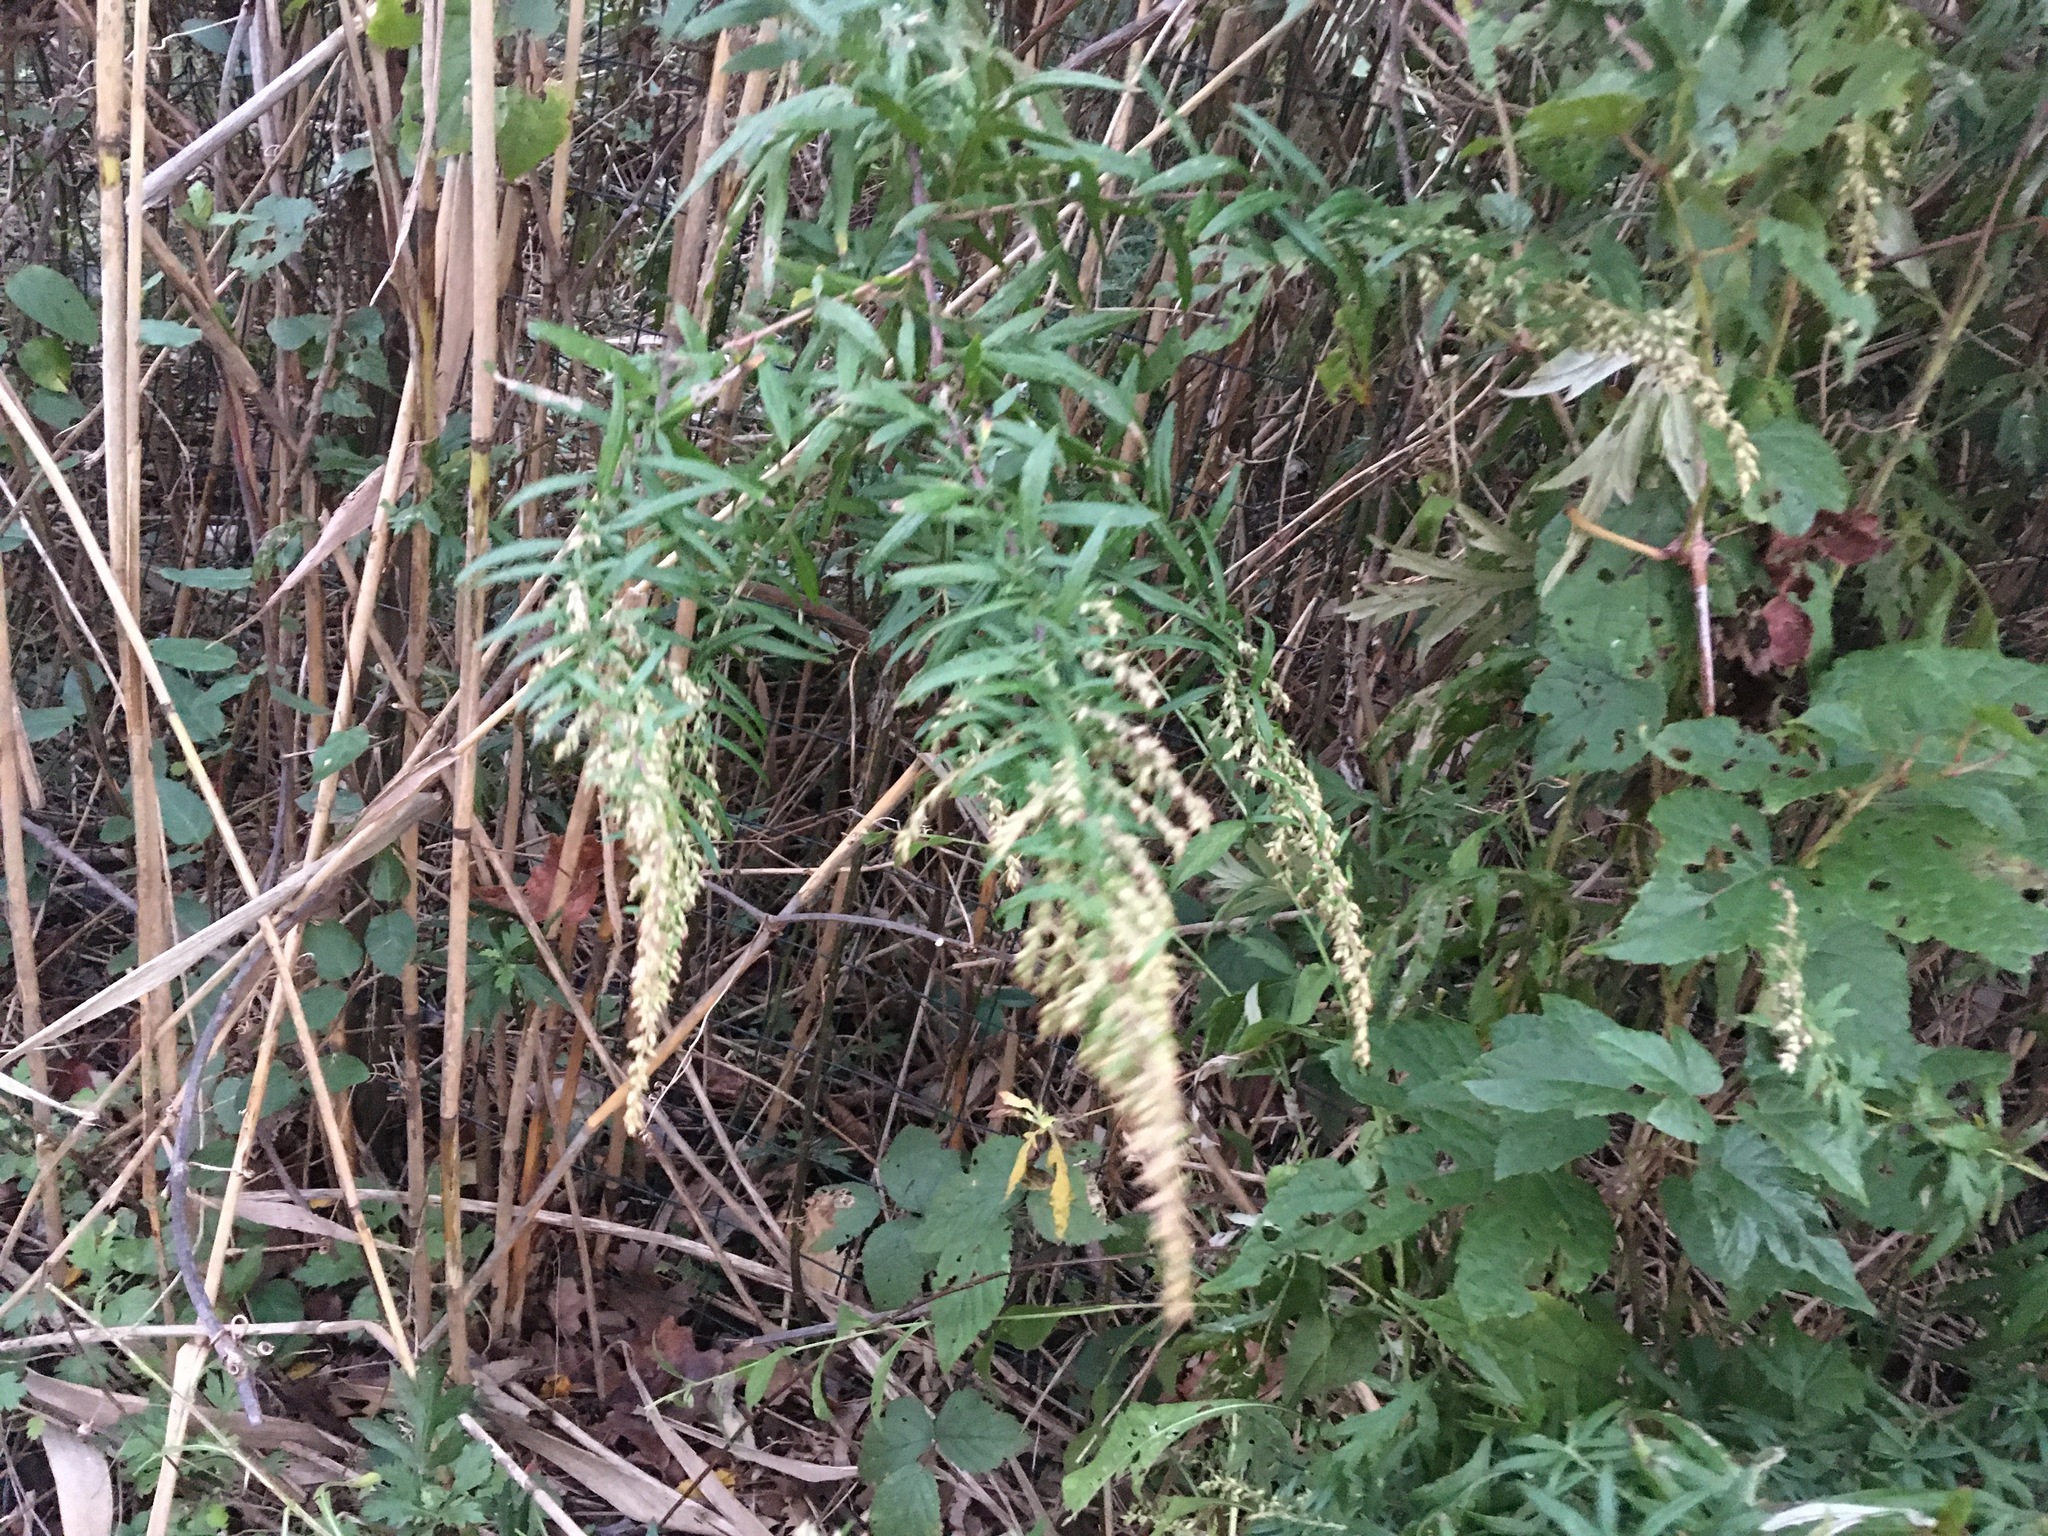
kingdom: Plantae
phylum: Tracheophyta
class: Magnoliopsida
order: Asterales
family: Asteraceae
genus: Artemisia
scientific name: Artemisia vulgaris
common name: Mugwort
